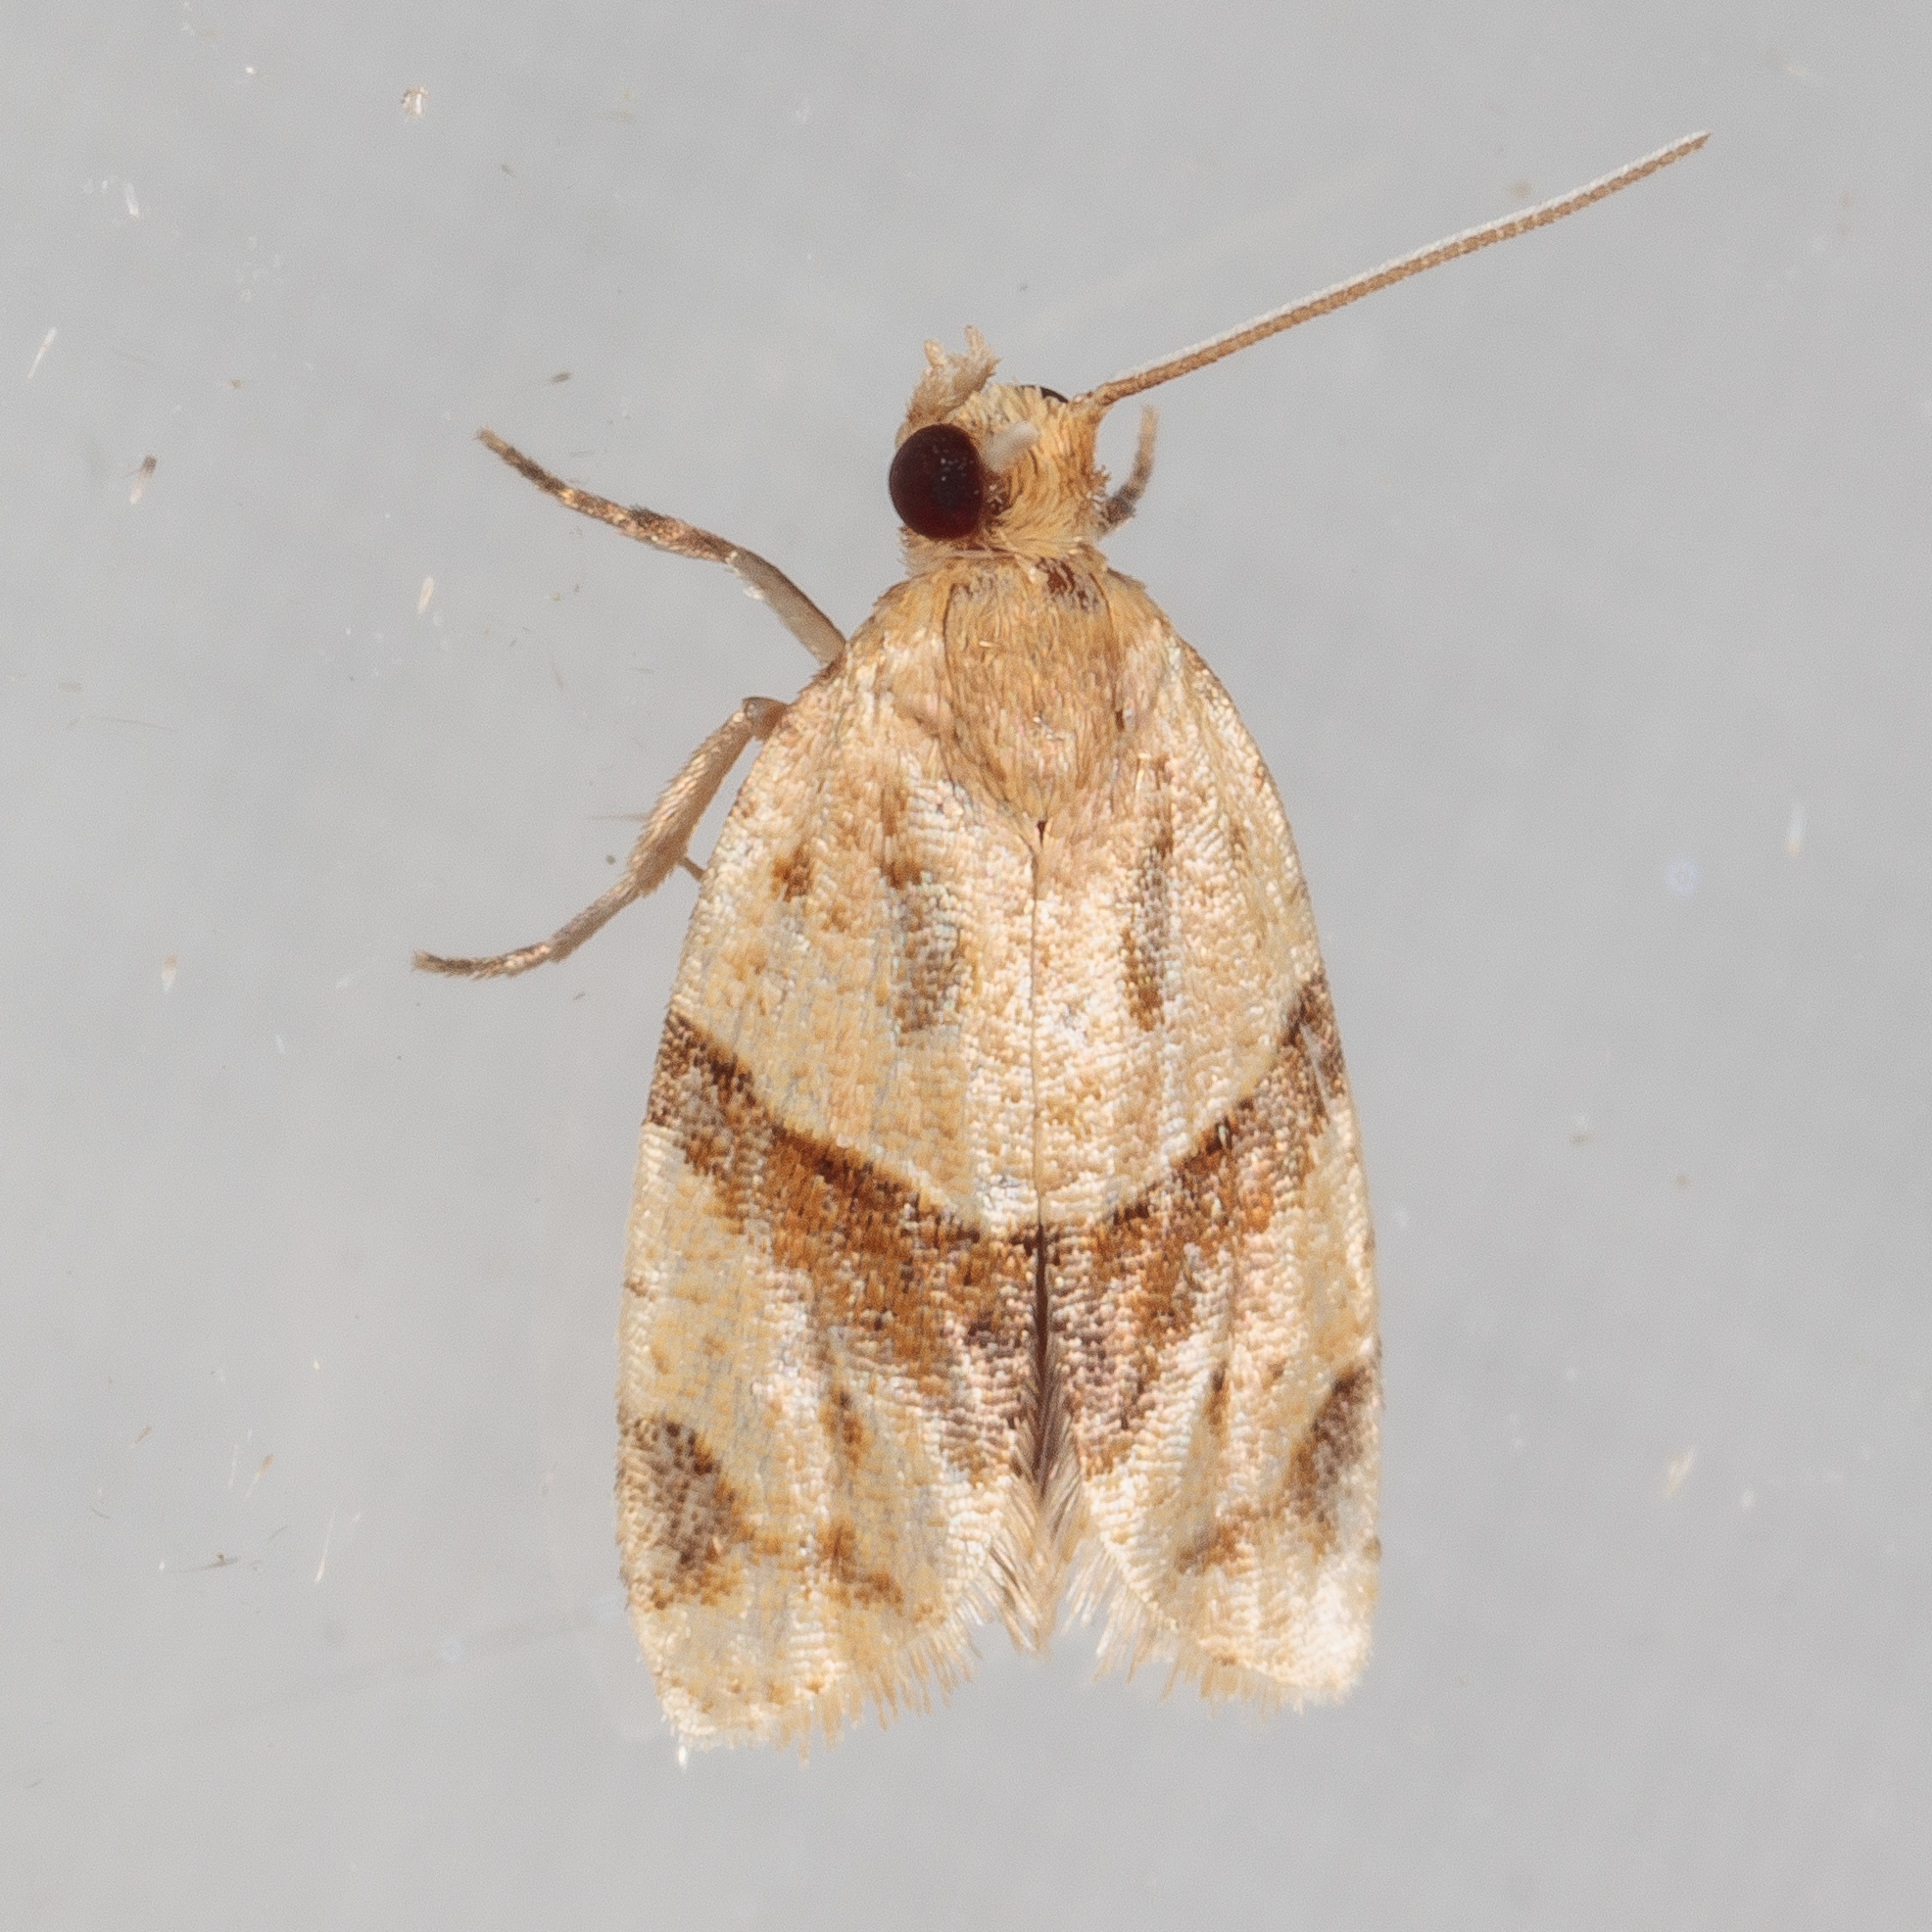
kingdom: Animalia
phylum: Arthropoda
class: Insecta
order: Lepidoptera
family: Tortricidae
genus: Clepsis
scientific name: Clepsis peritana
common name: Garden tortrix
